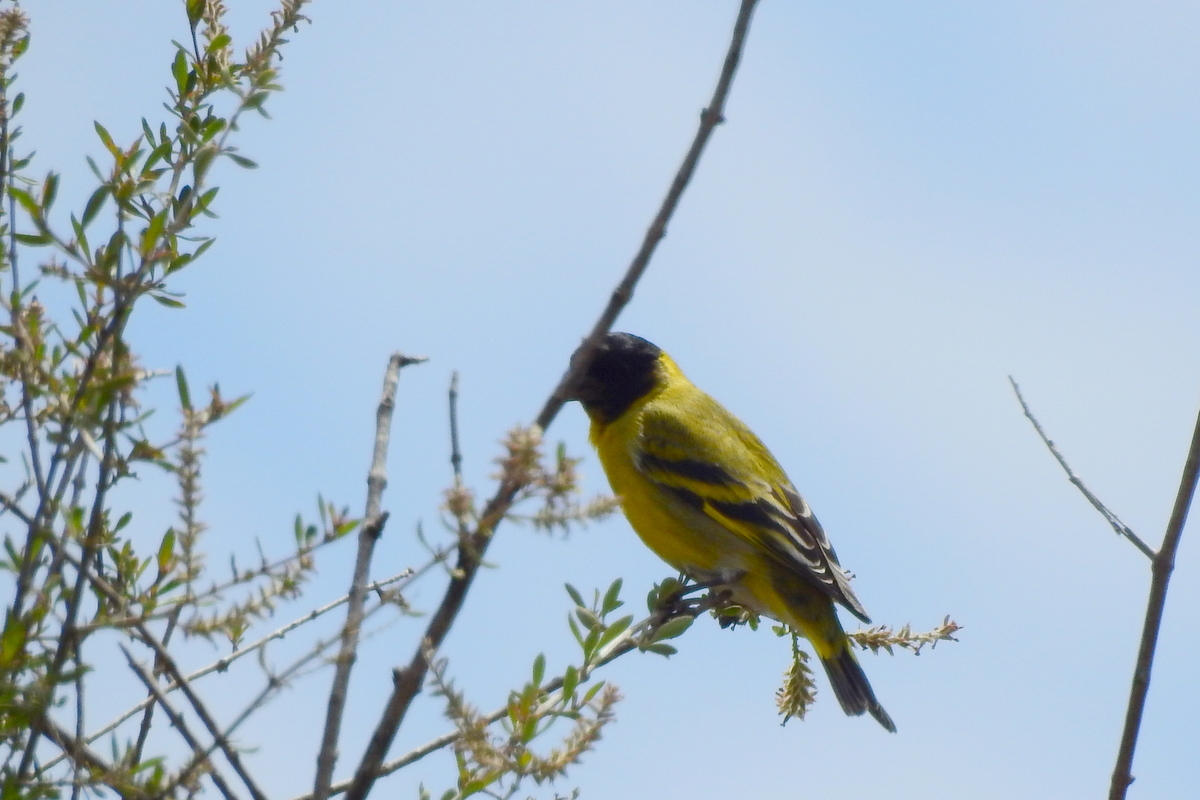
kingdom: Animalia
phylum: Chordata
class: Aves
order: Passeriformes
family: Fringillidae
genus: Spinus
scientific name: Spinus magellanicus
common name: Hooded siskin
